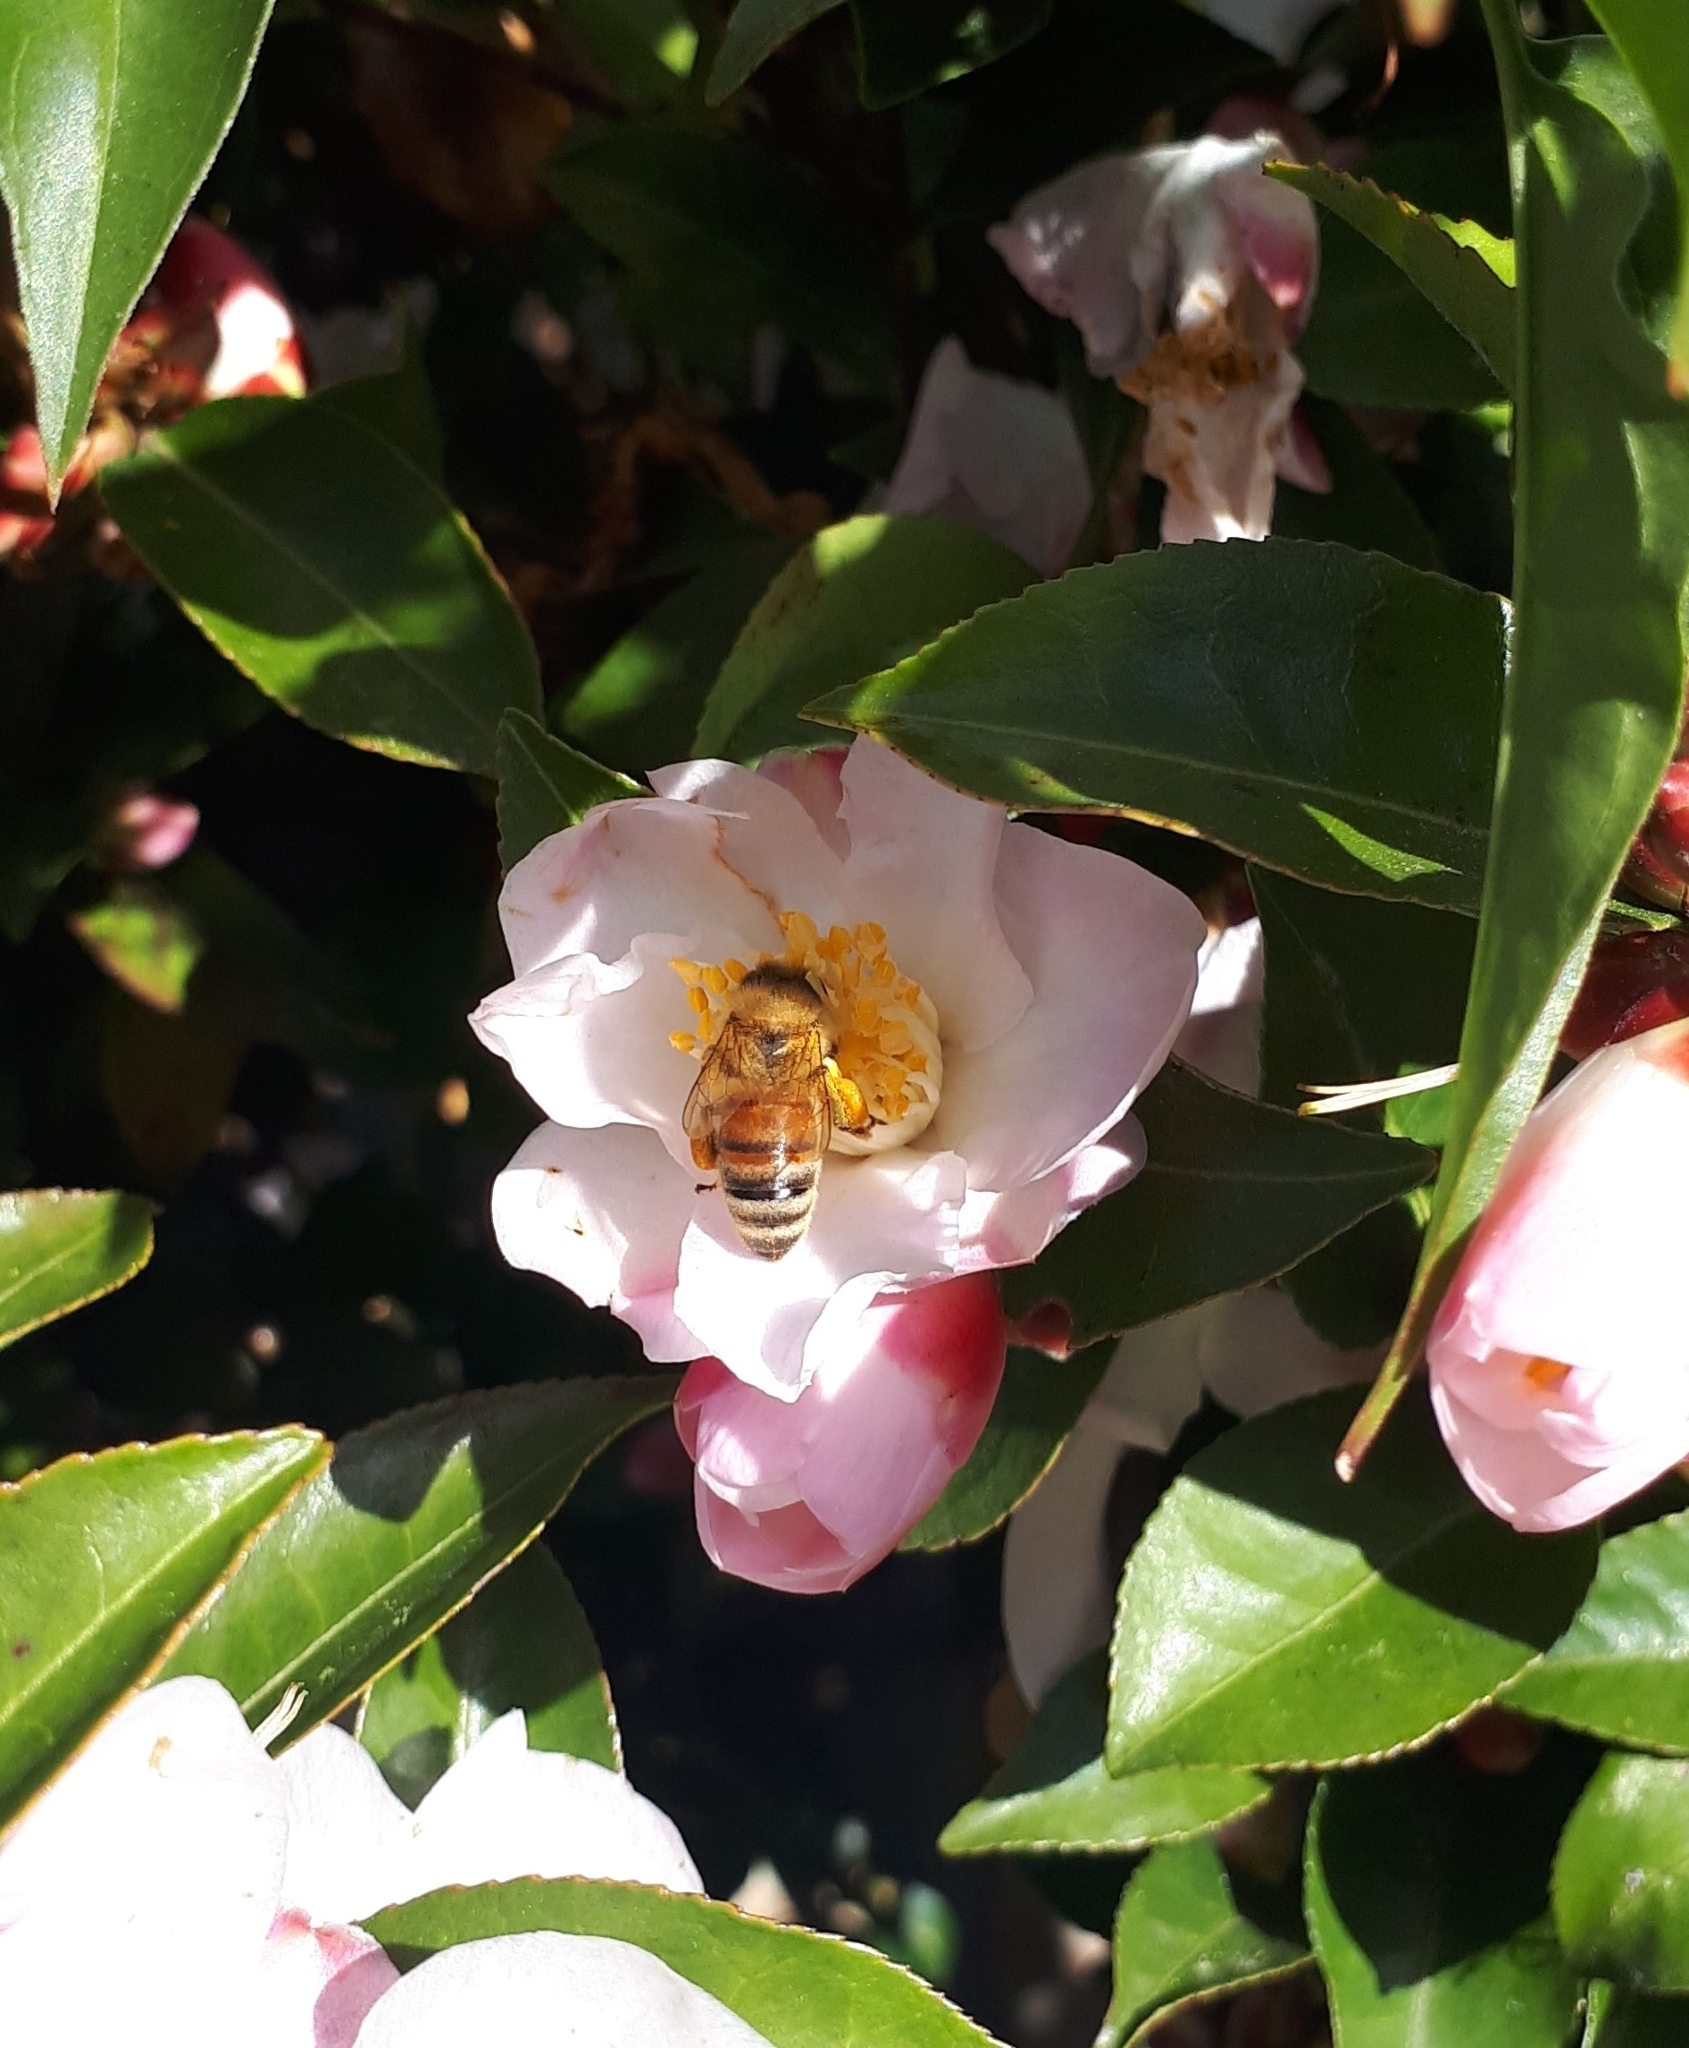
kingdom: Animalia
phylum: Arthropoda
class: Insecta
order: Hymenoptera
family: Apidae
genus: Apis
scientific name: Apis mellifera
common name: Honey bee
